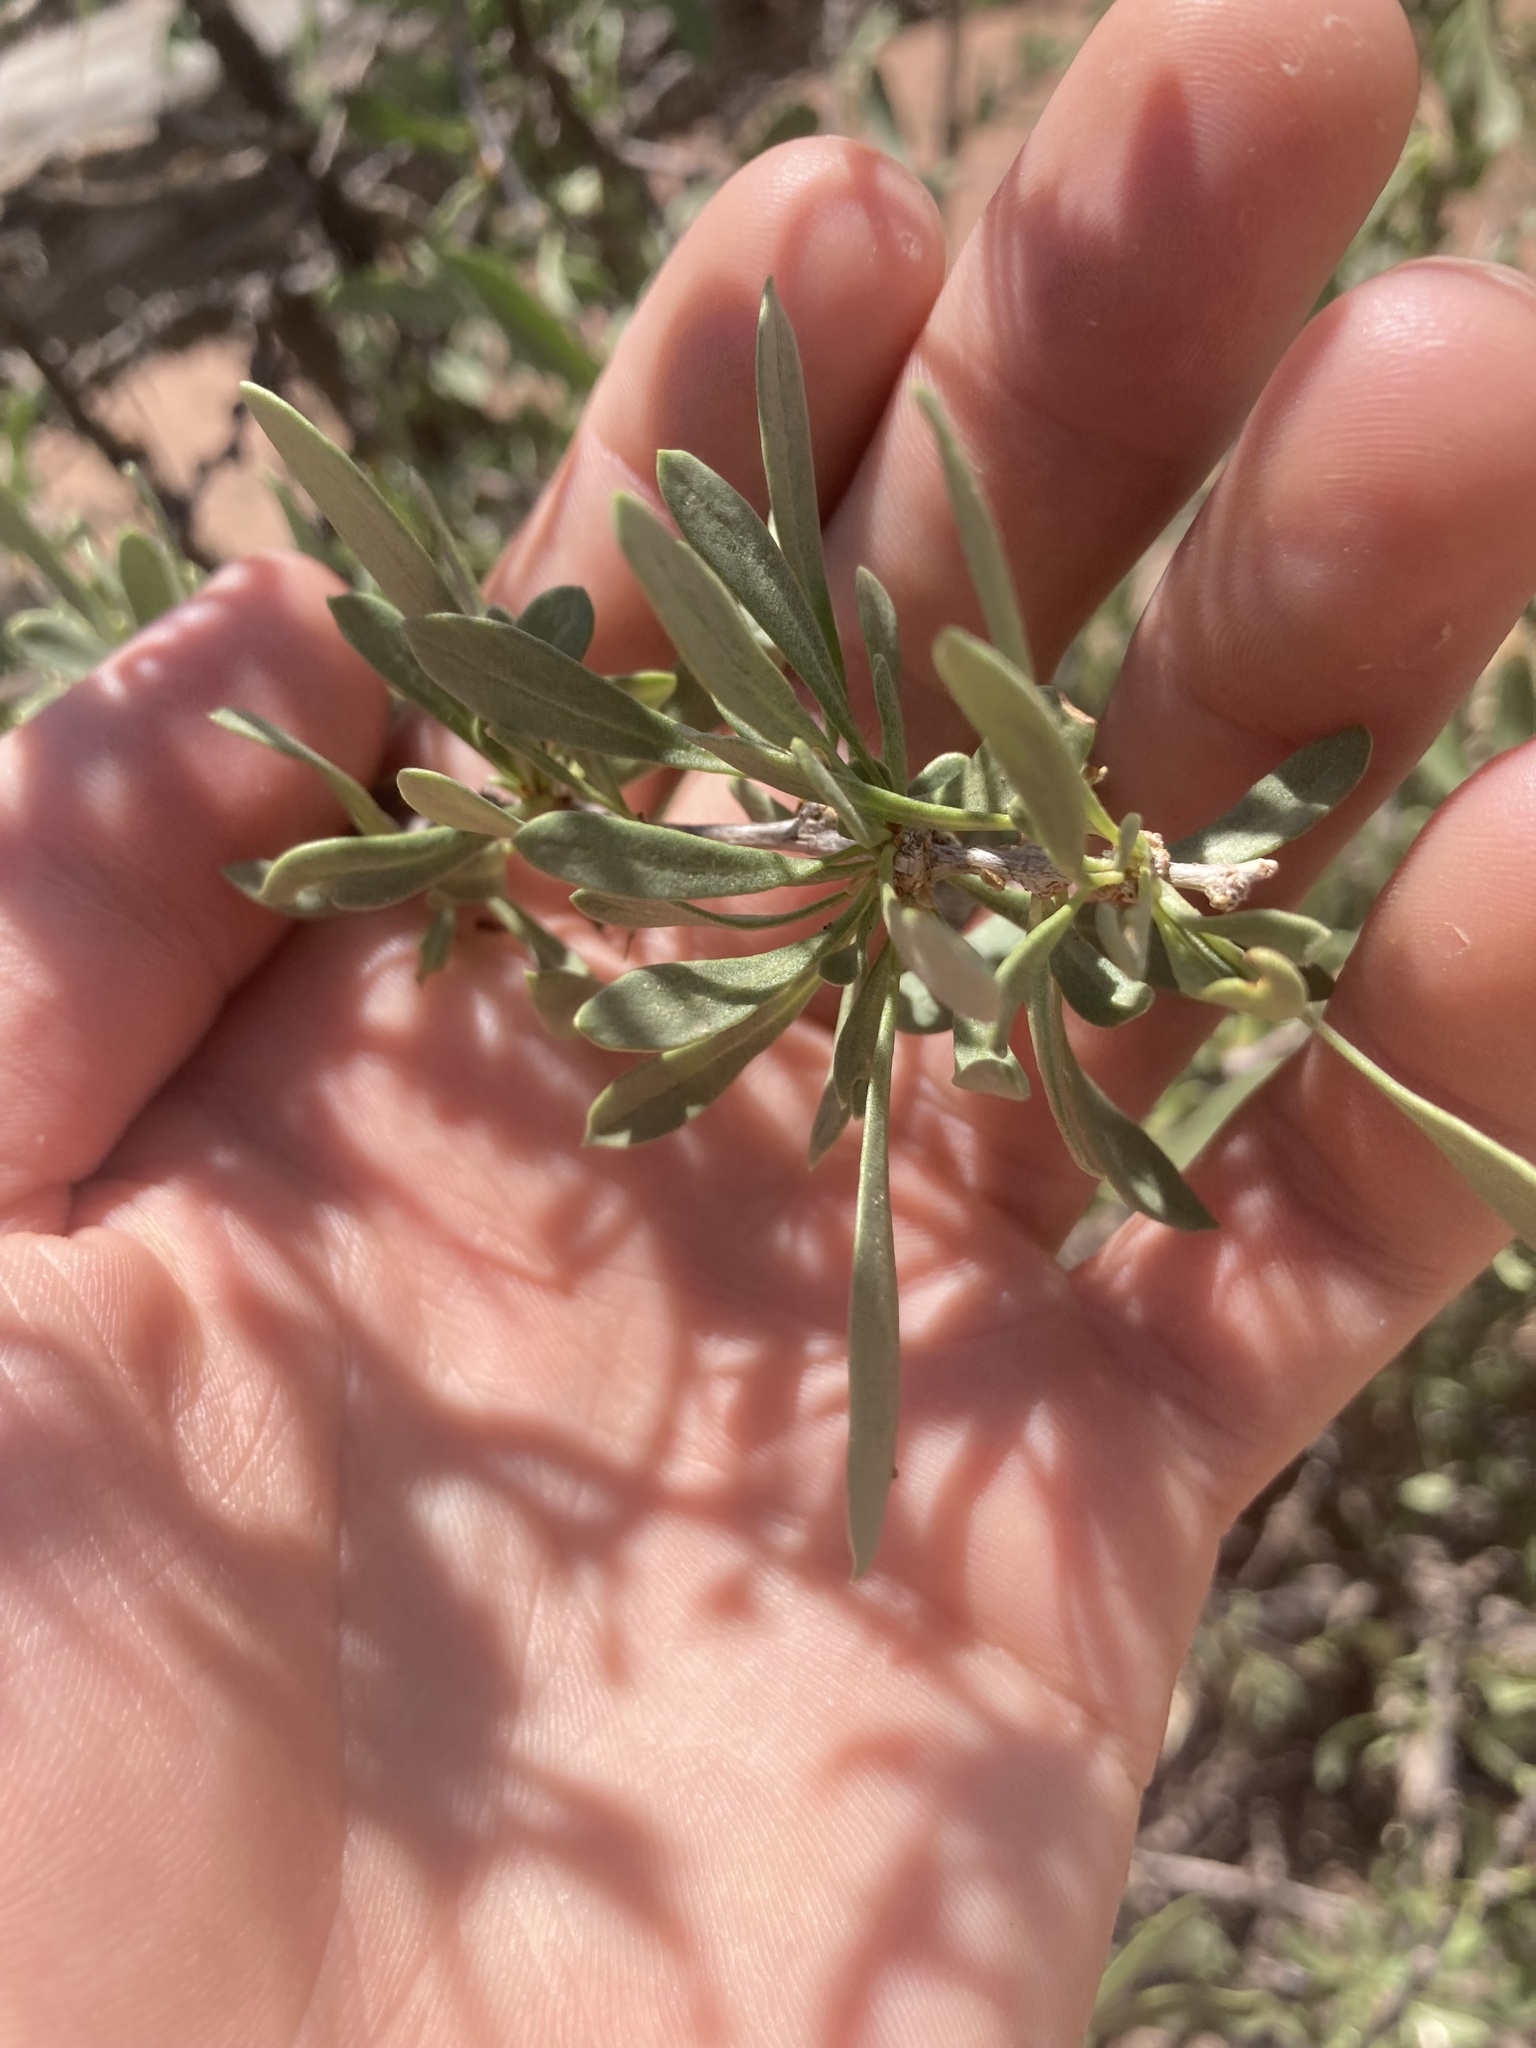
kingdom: Plantae
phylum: Tracheophyta
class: Magnoliopsida
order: Solanales
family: Solanaceae
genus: Lycium
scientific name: Lycium pallidum
